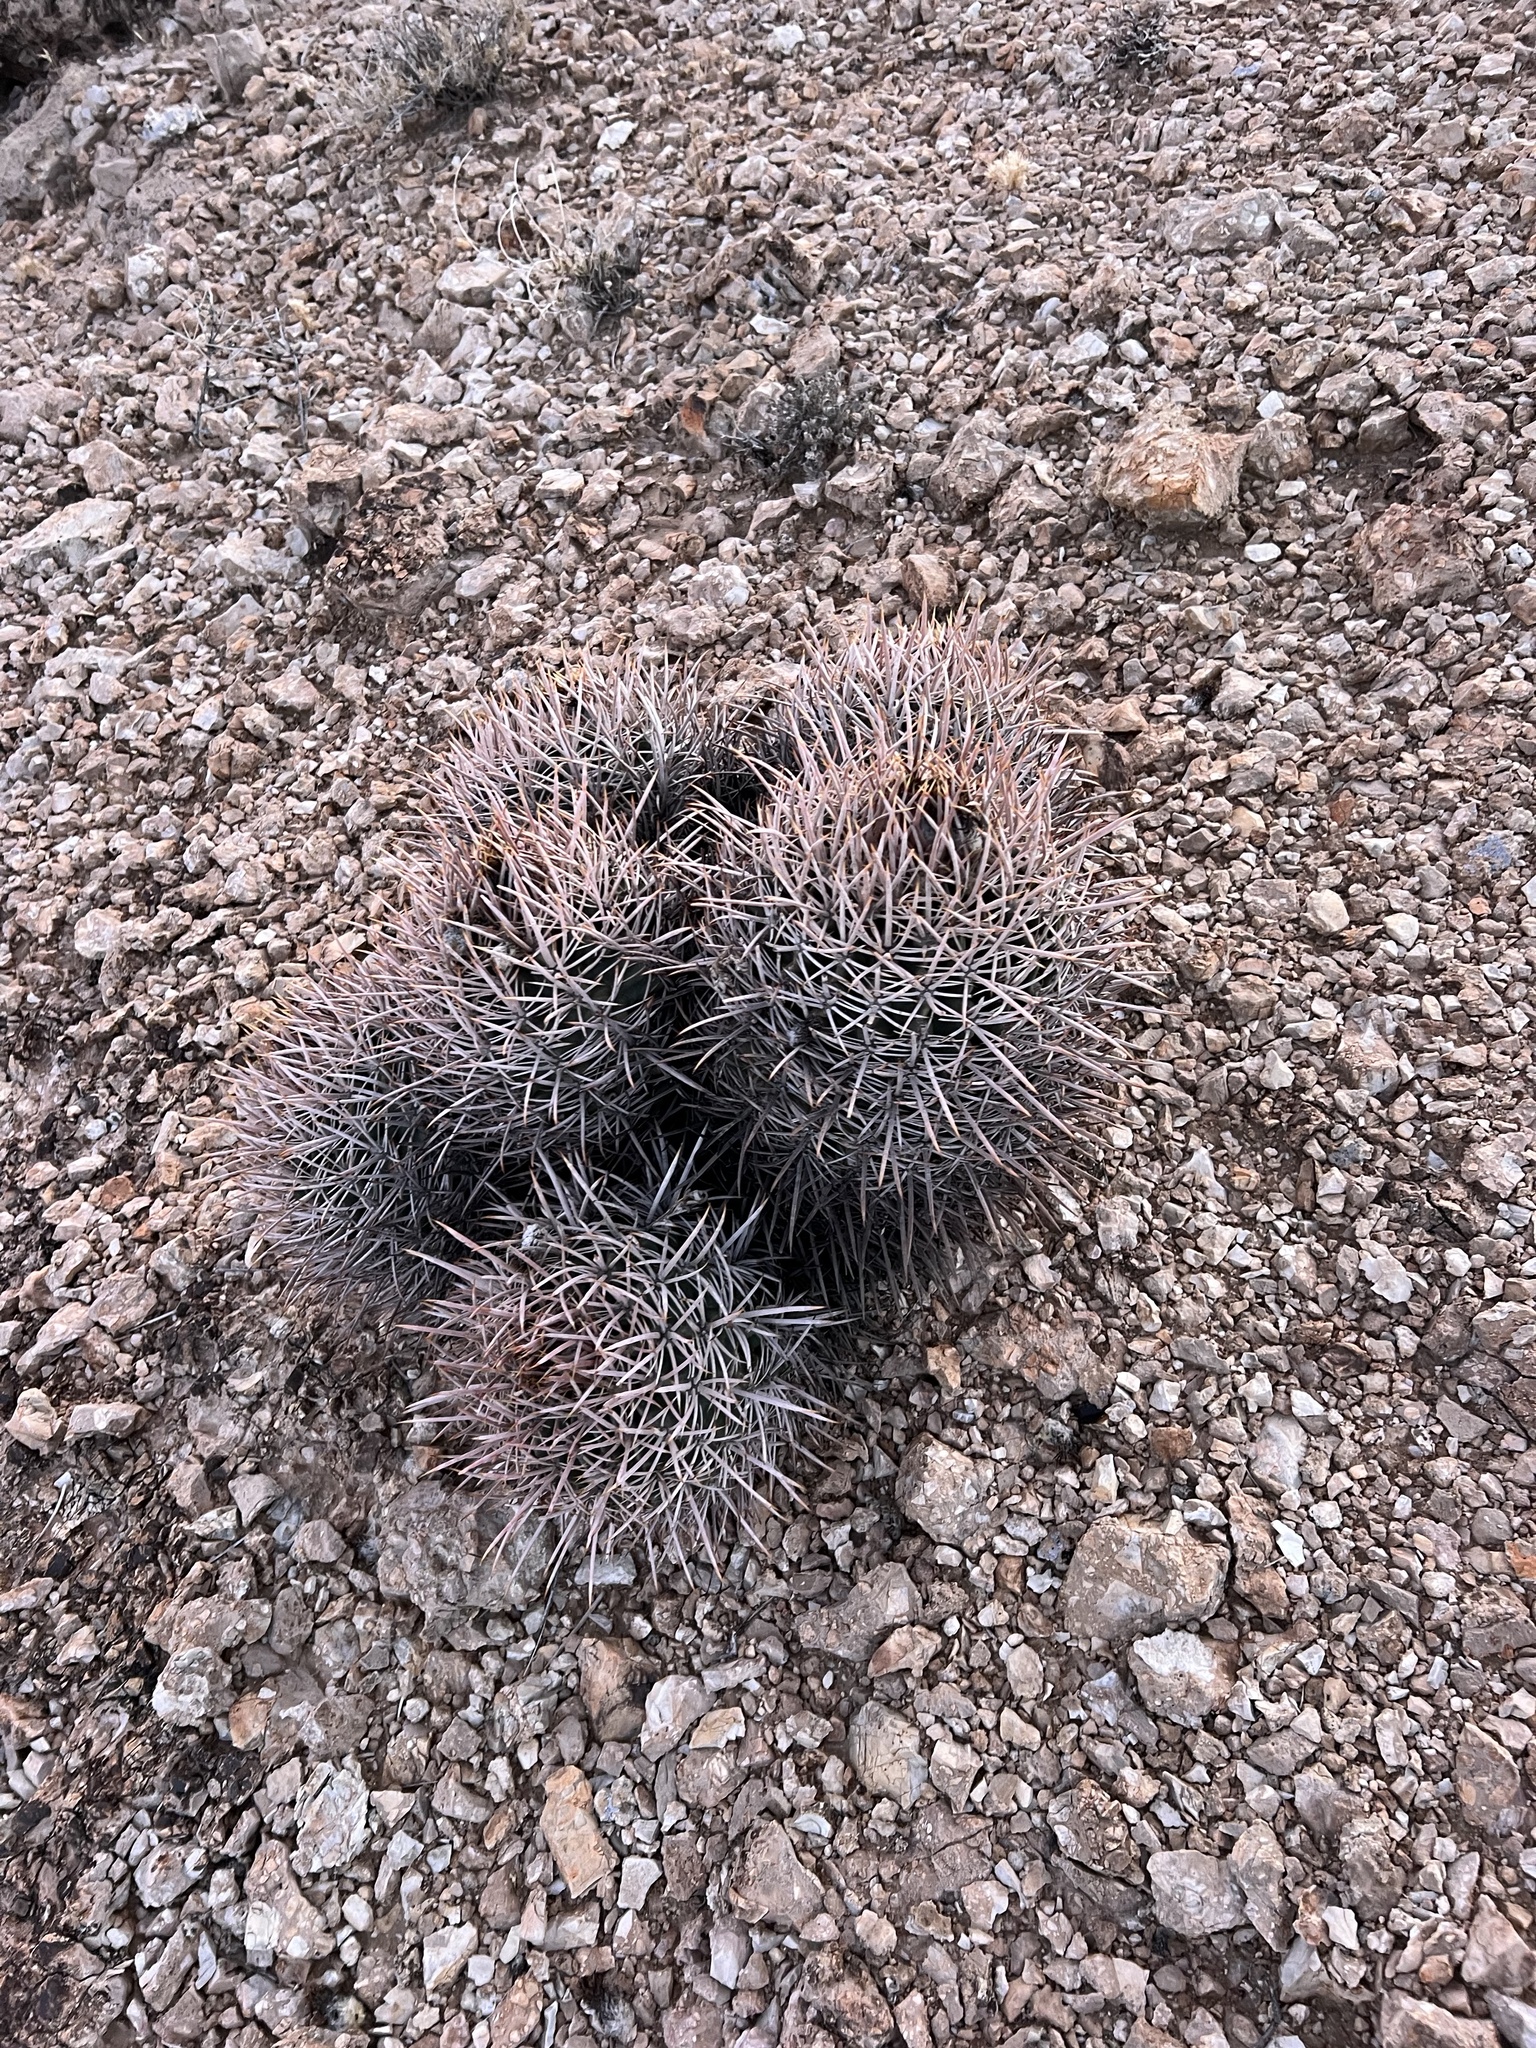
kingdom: Plantae
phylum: Tracheophyta
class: Magnoliopsida
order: Caryophyllales
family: Cactaceae
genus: Echinocactus
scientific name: Echinocactus polycephalus
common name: Cottontop cactus
